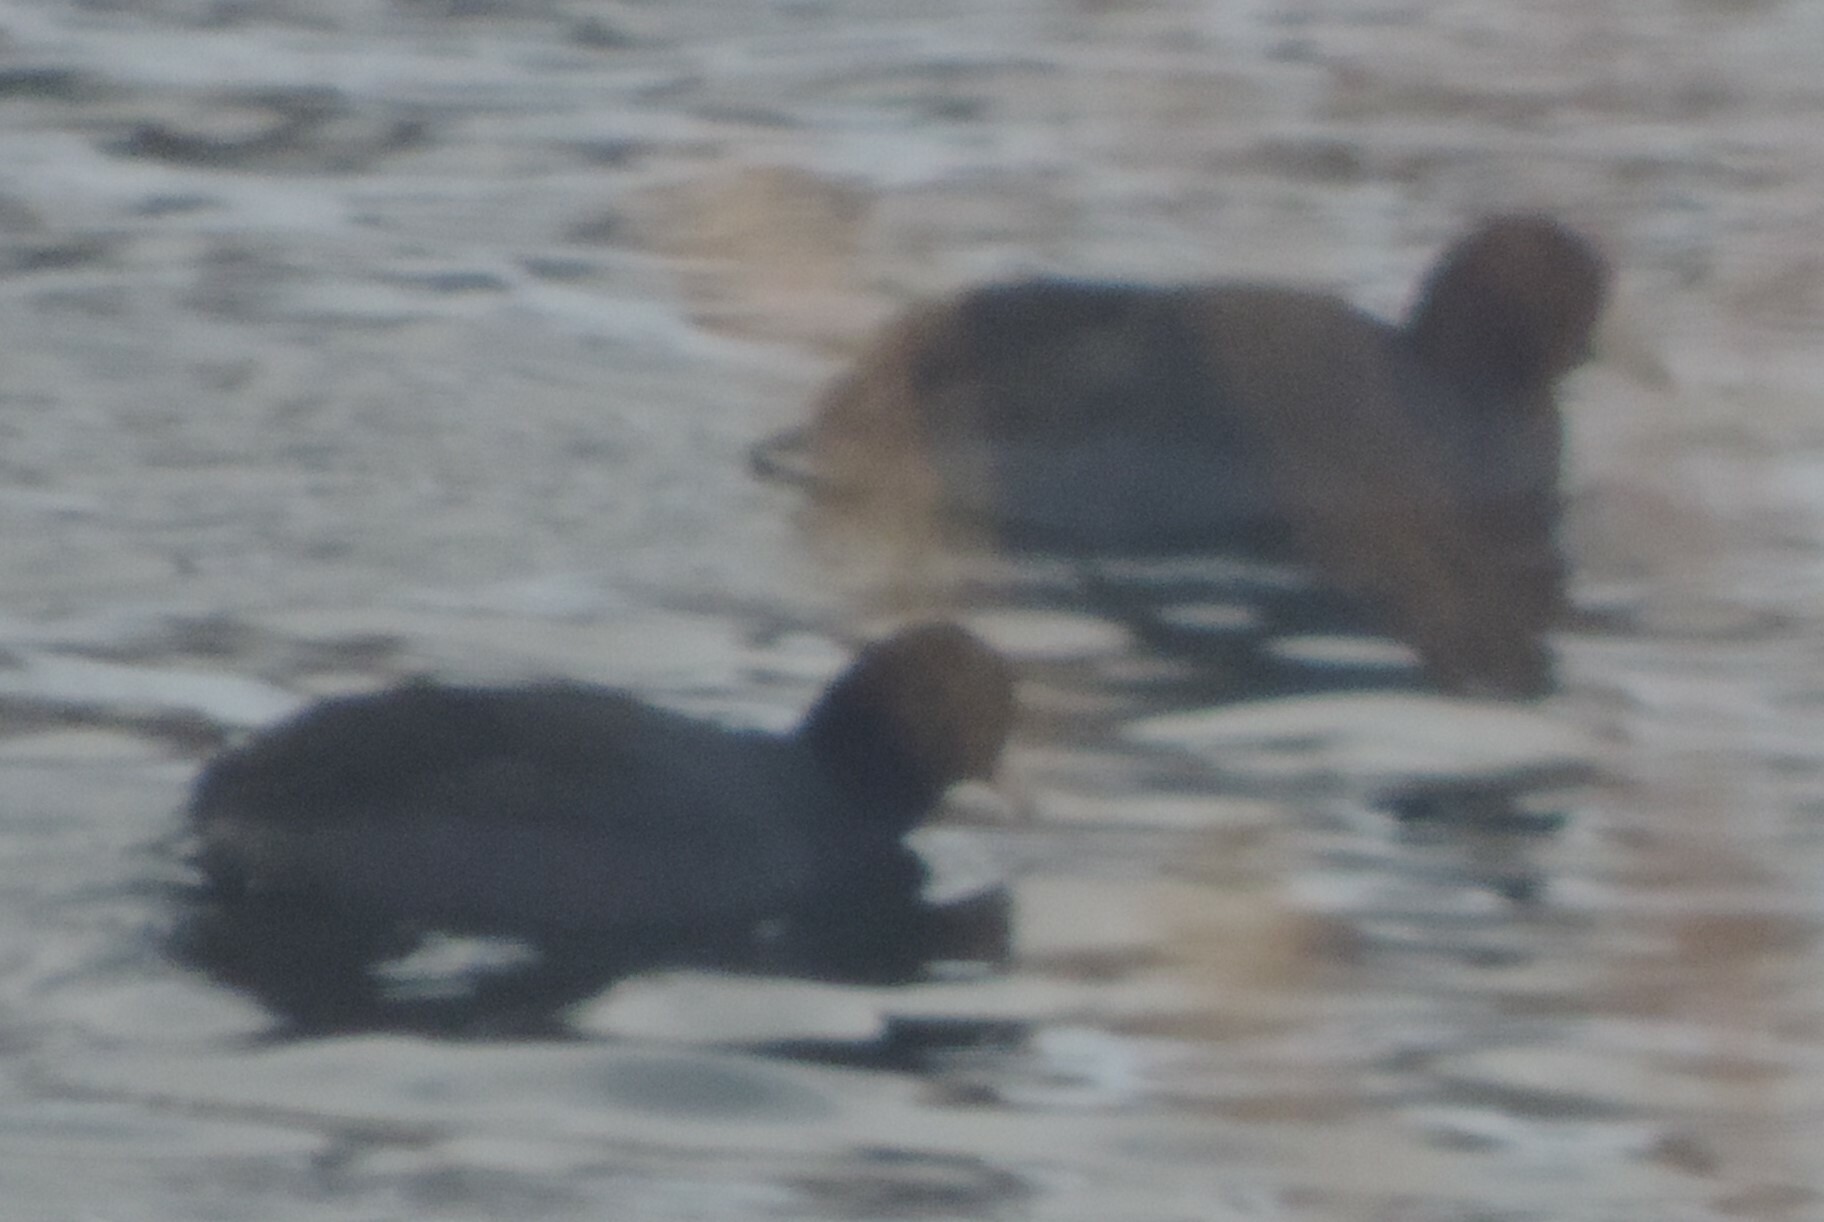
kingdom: Animalia
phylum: Chordata
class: Aves
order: Gruiformes
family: Rallidae
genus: Fulica
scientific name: Fulica americana
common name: American coot
